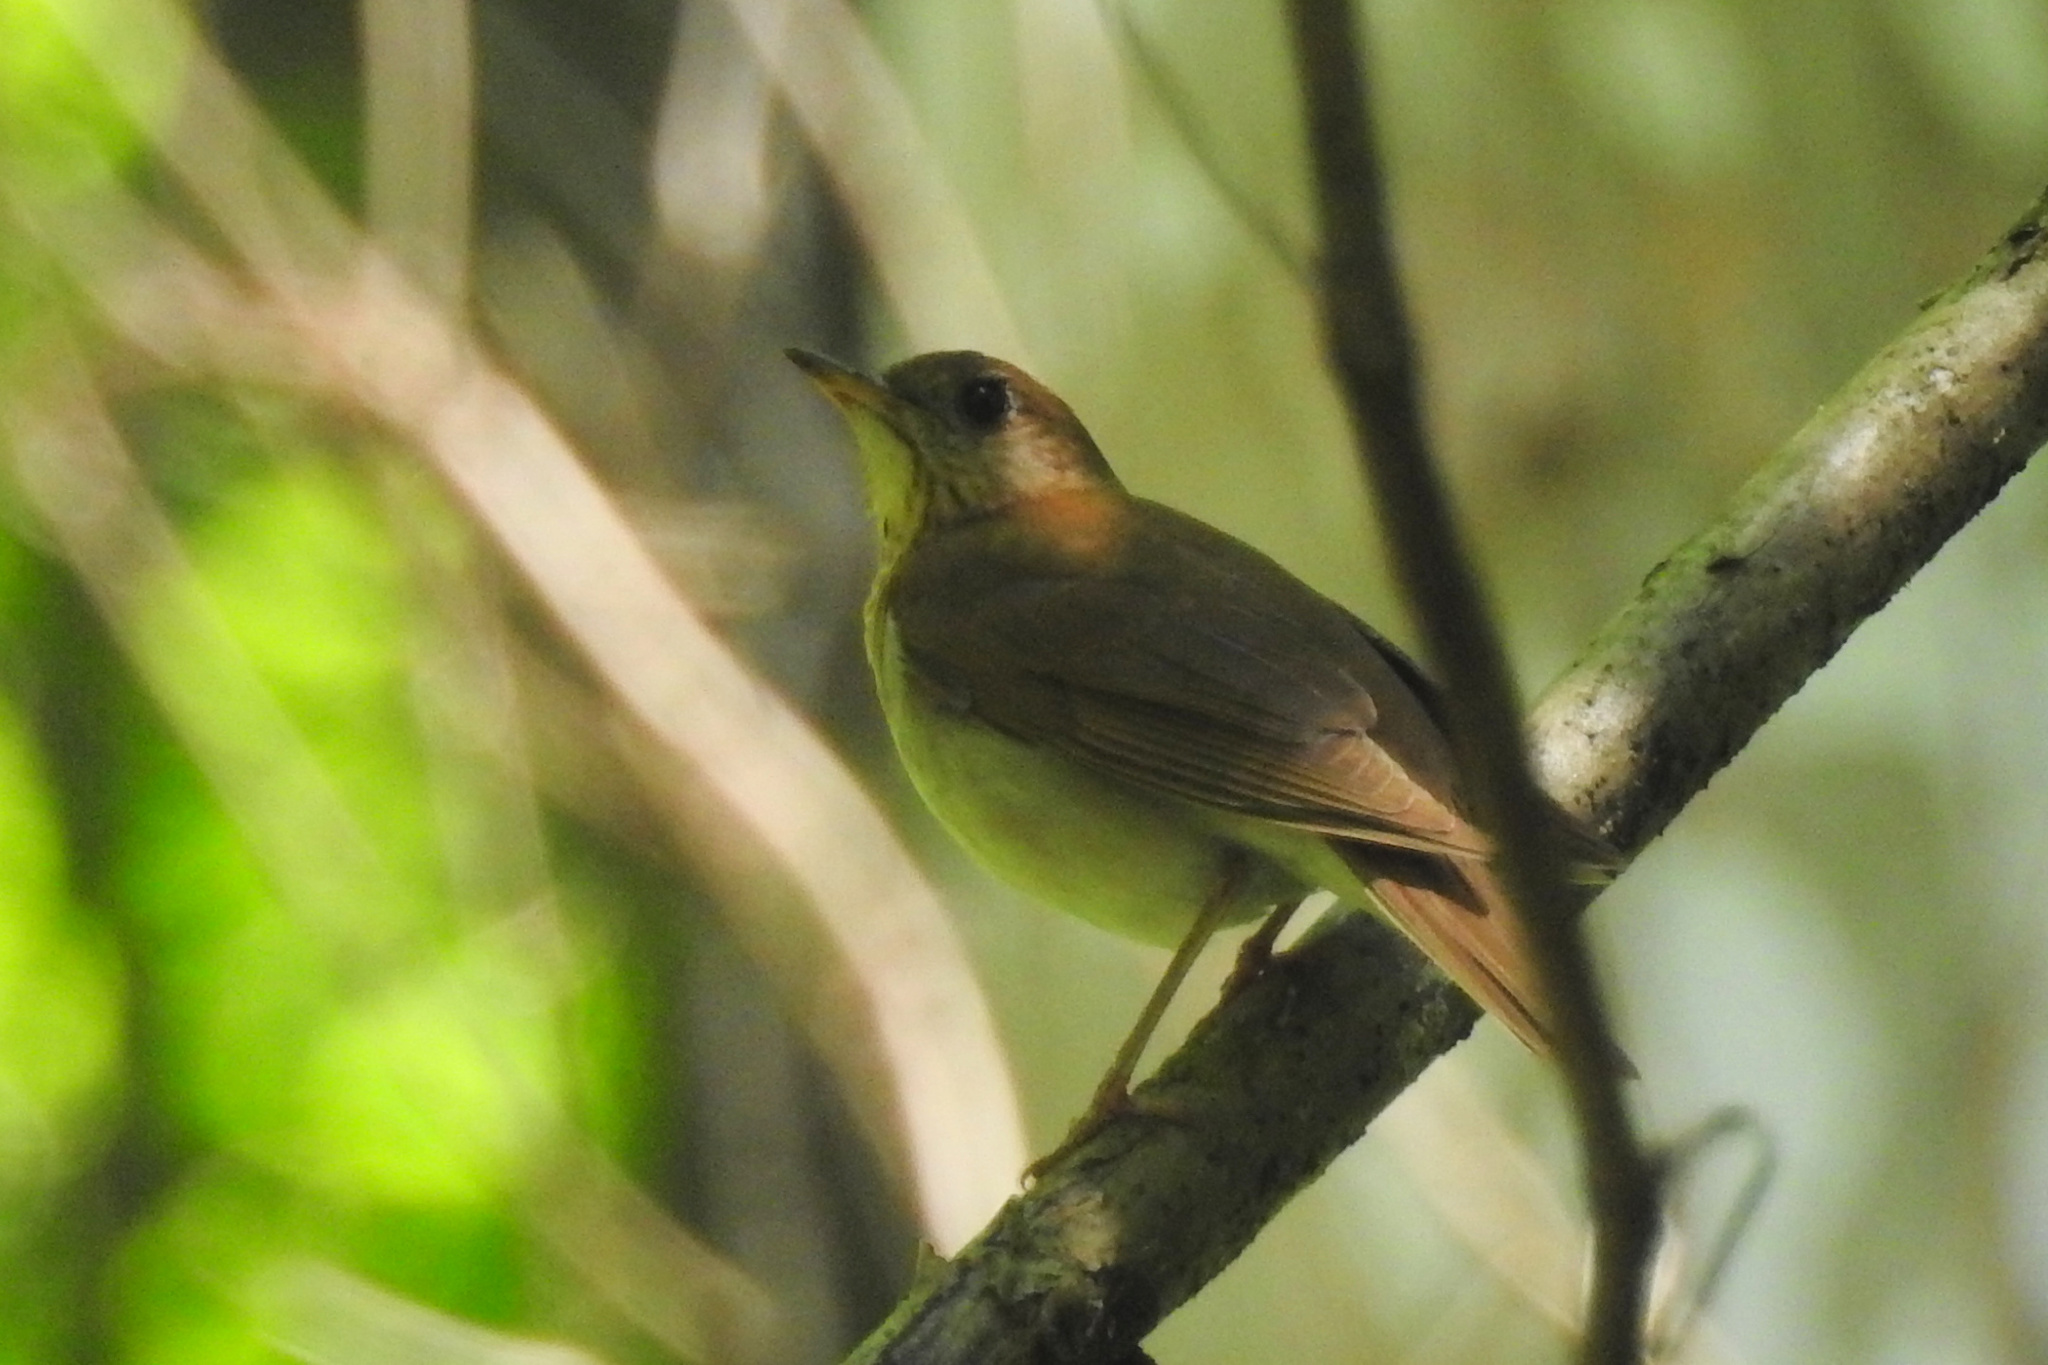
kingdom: Animalia
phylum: Chordata
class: Aves
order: Passeriformes
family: Turdidae
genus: Catharus
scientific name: Catharus fuscescens
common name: Veery
